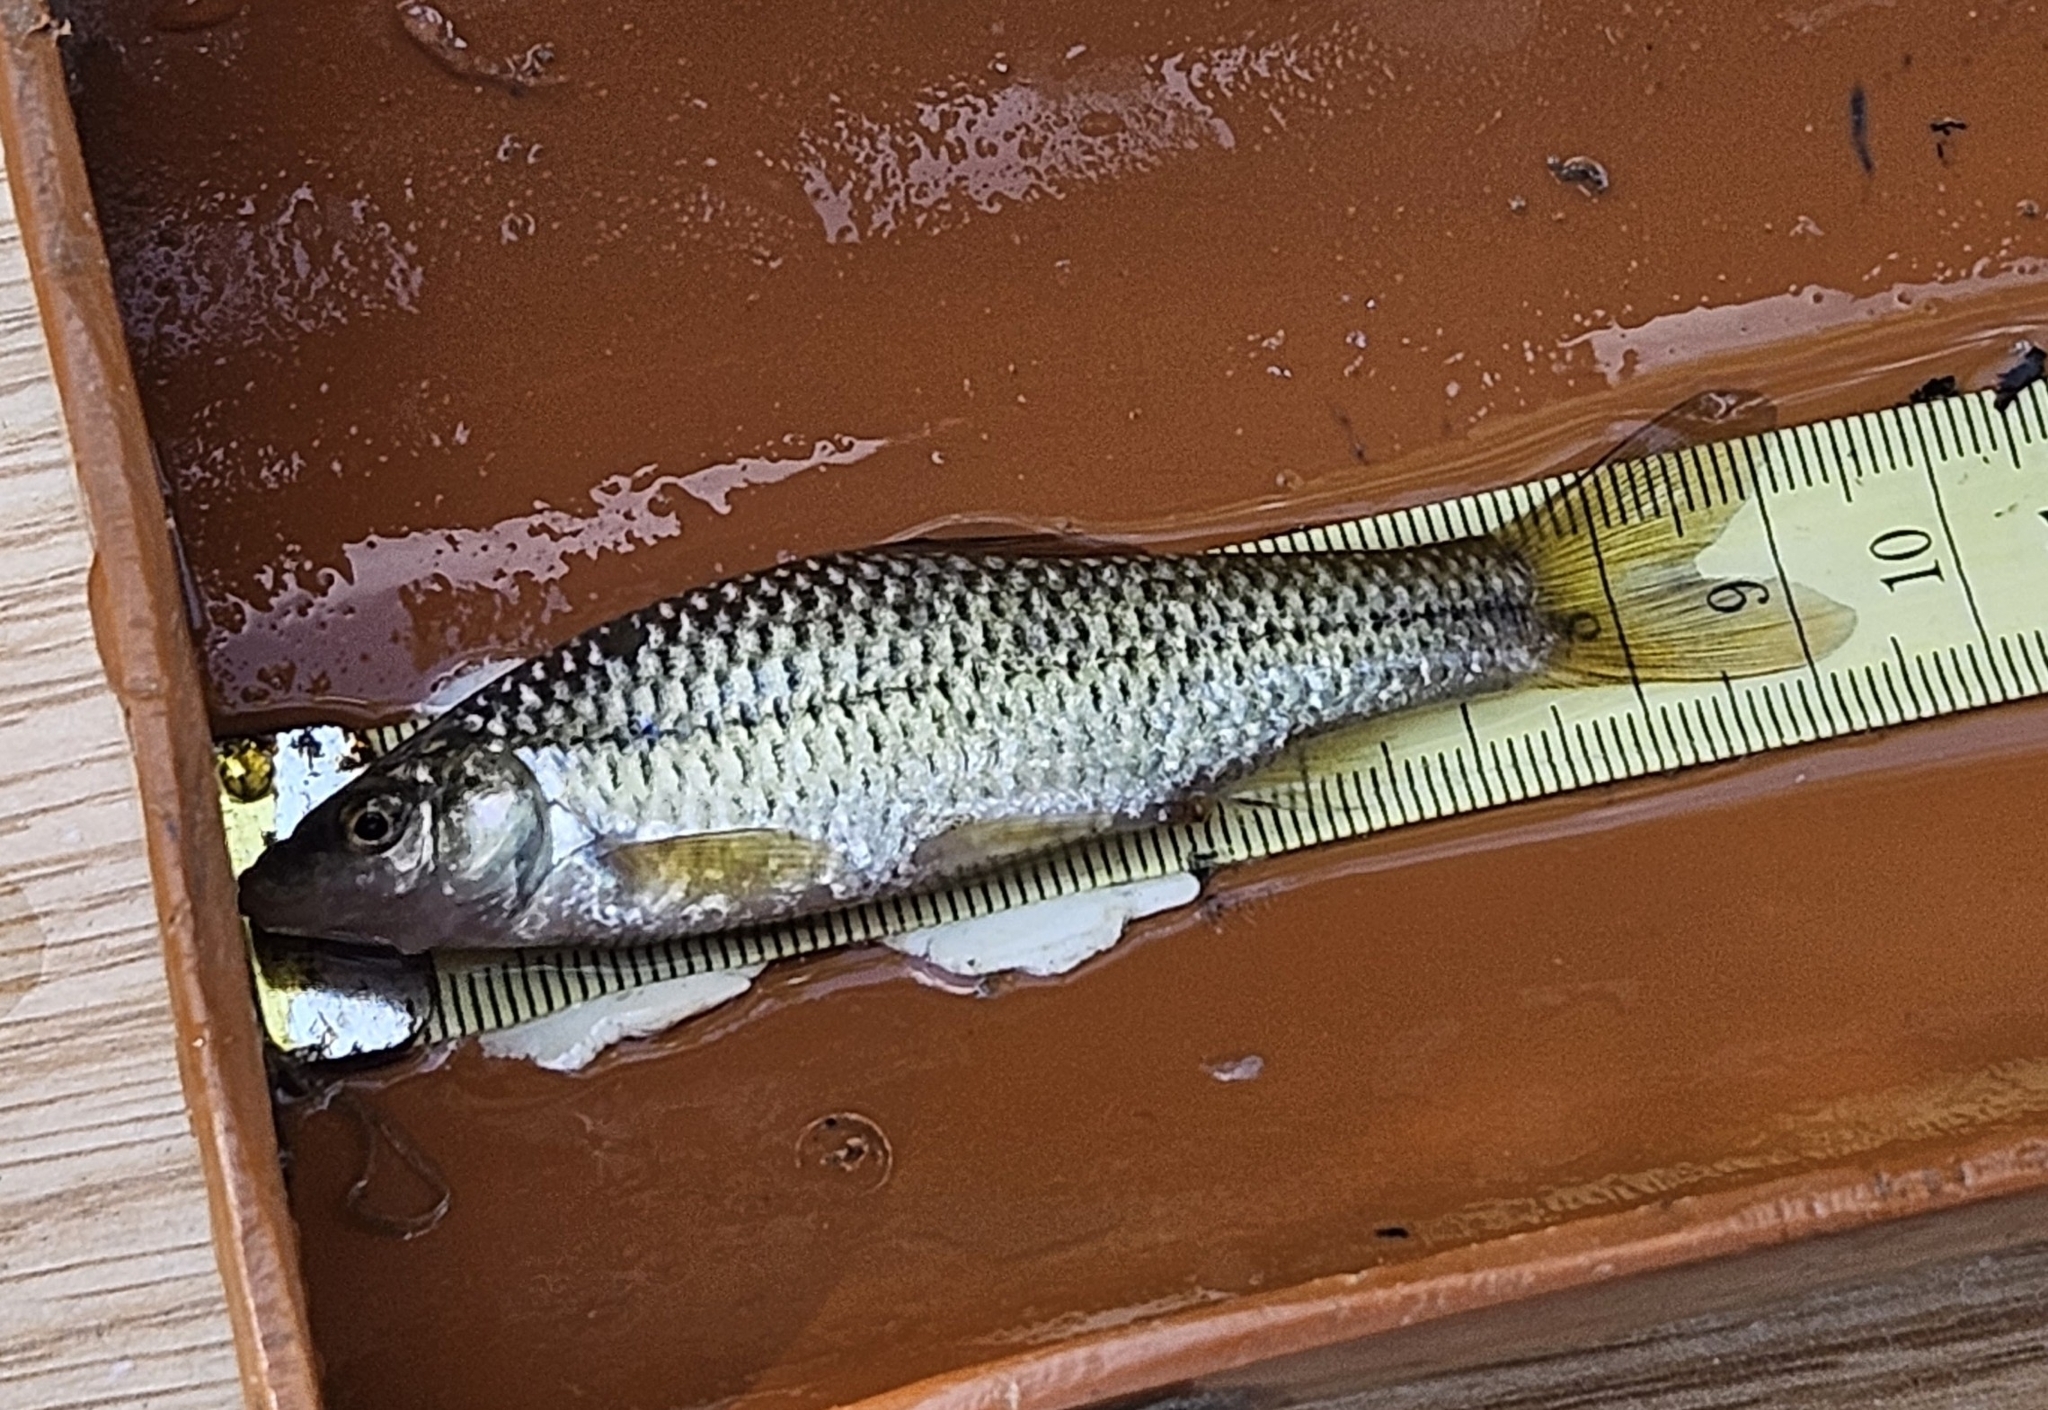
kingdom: Animalia
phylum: Chordata
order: Cypriniformes
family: Cyprinidae
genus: Pseudorasbora
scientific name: Pseudorasbora parva
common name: Topmouth gudgeon
